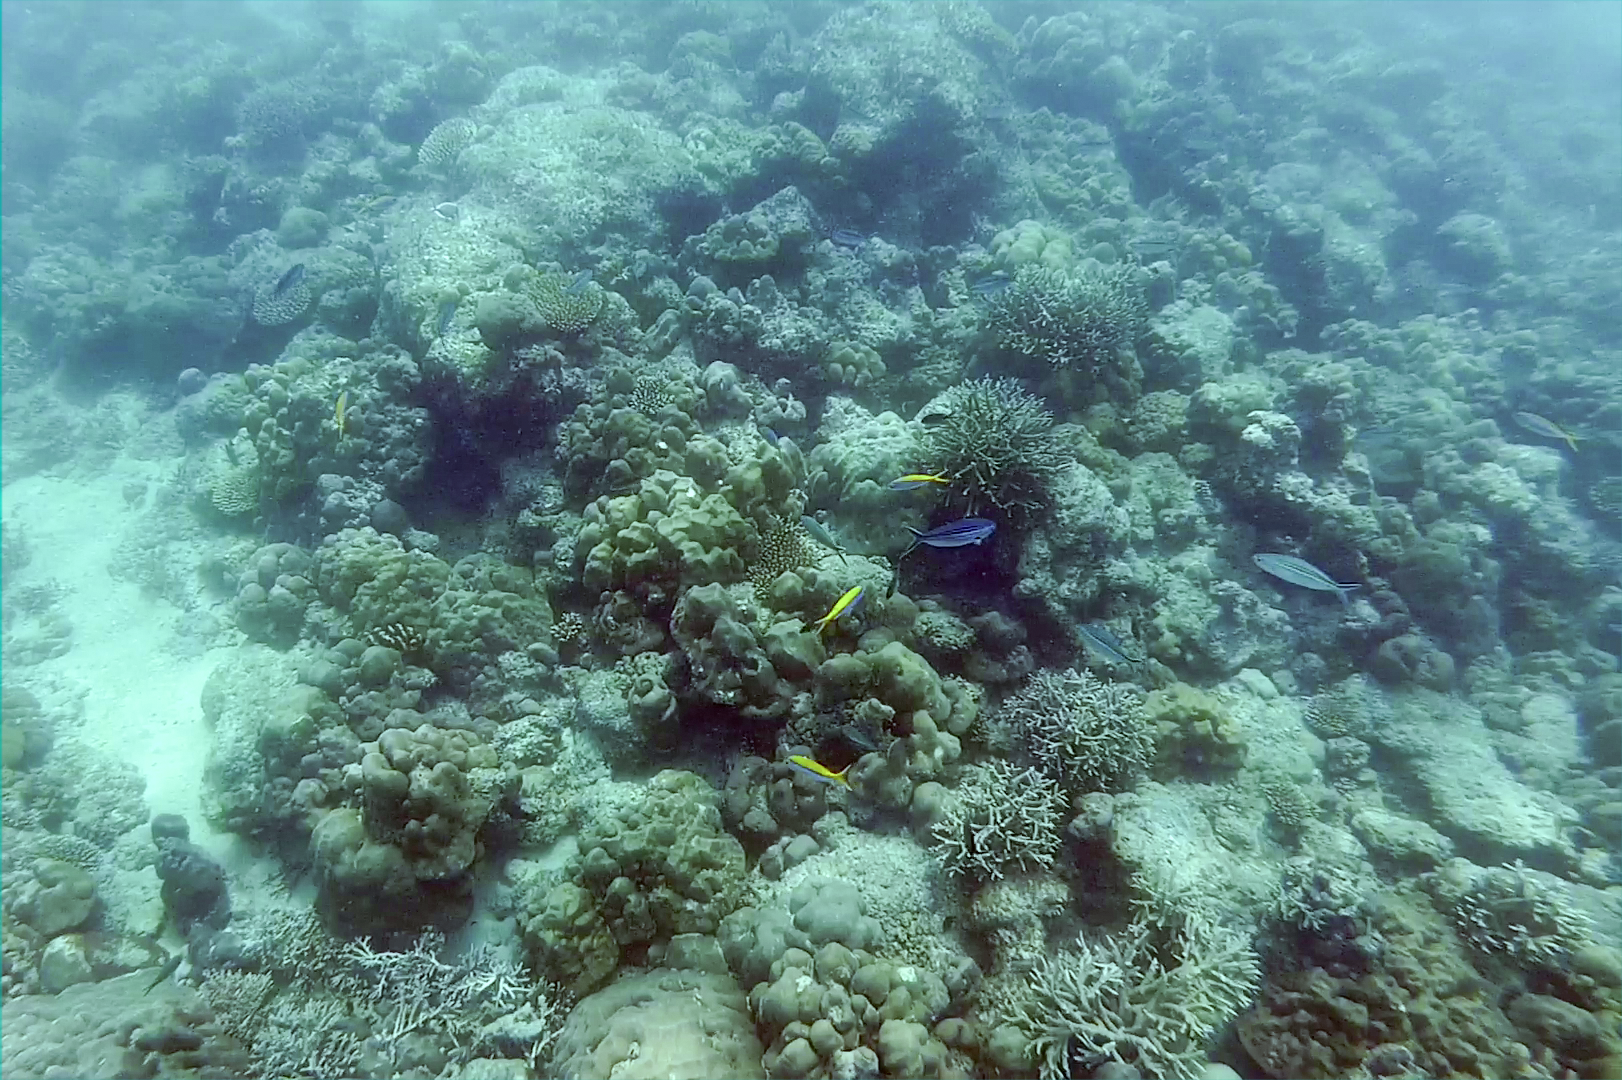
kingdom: Animalia
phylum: Chordata
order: Perciformes
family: Caesionidae
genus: Caesio
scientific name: Caesio xanthonota
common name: Yellowback fusilier
